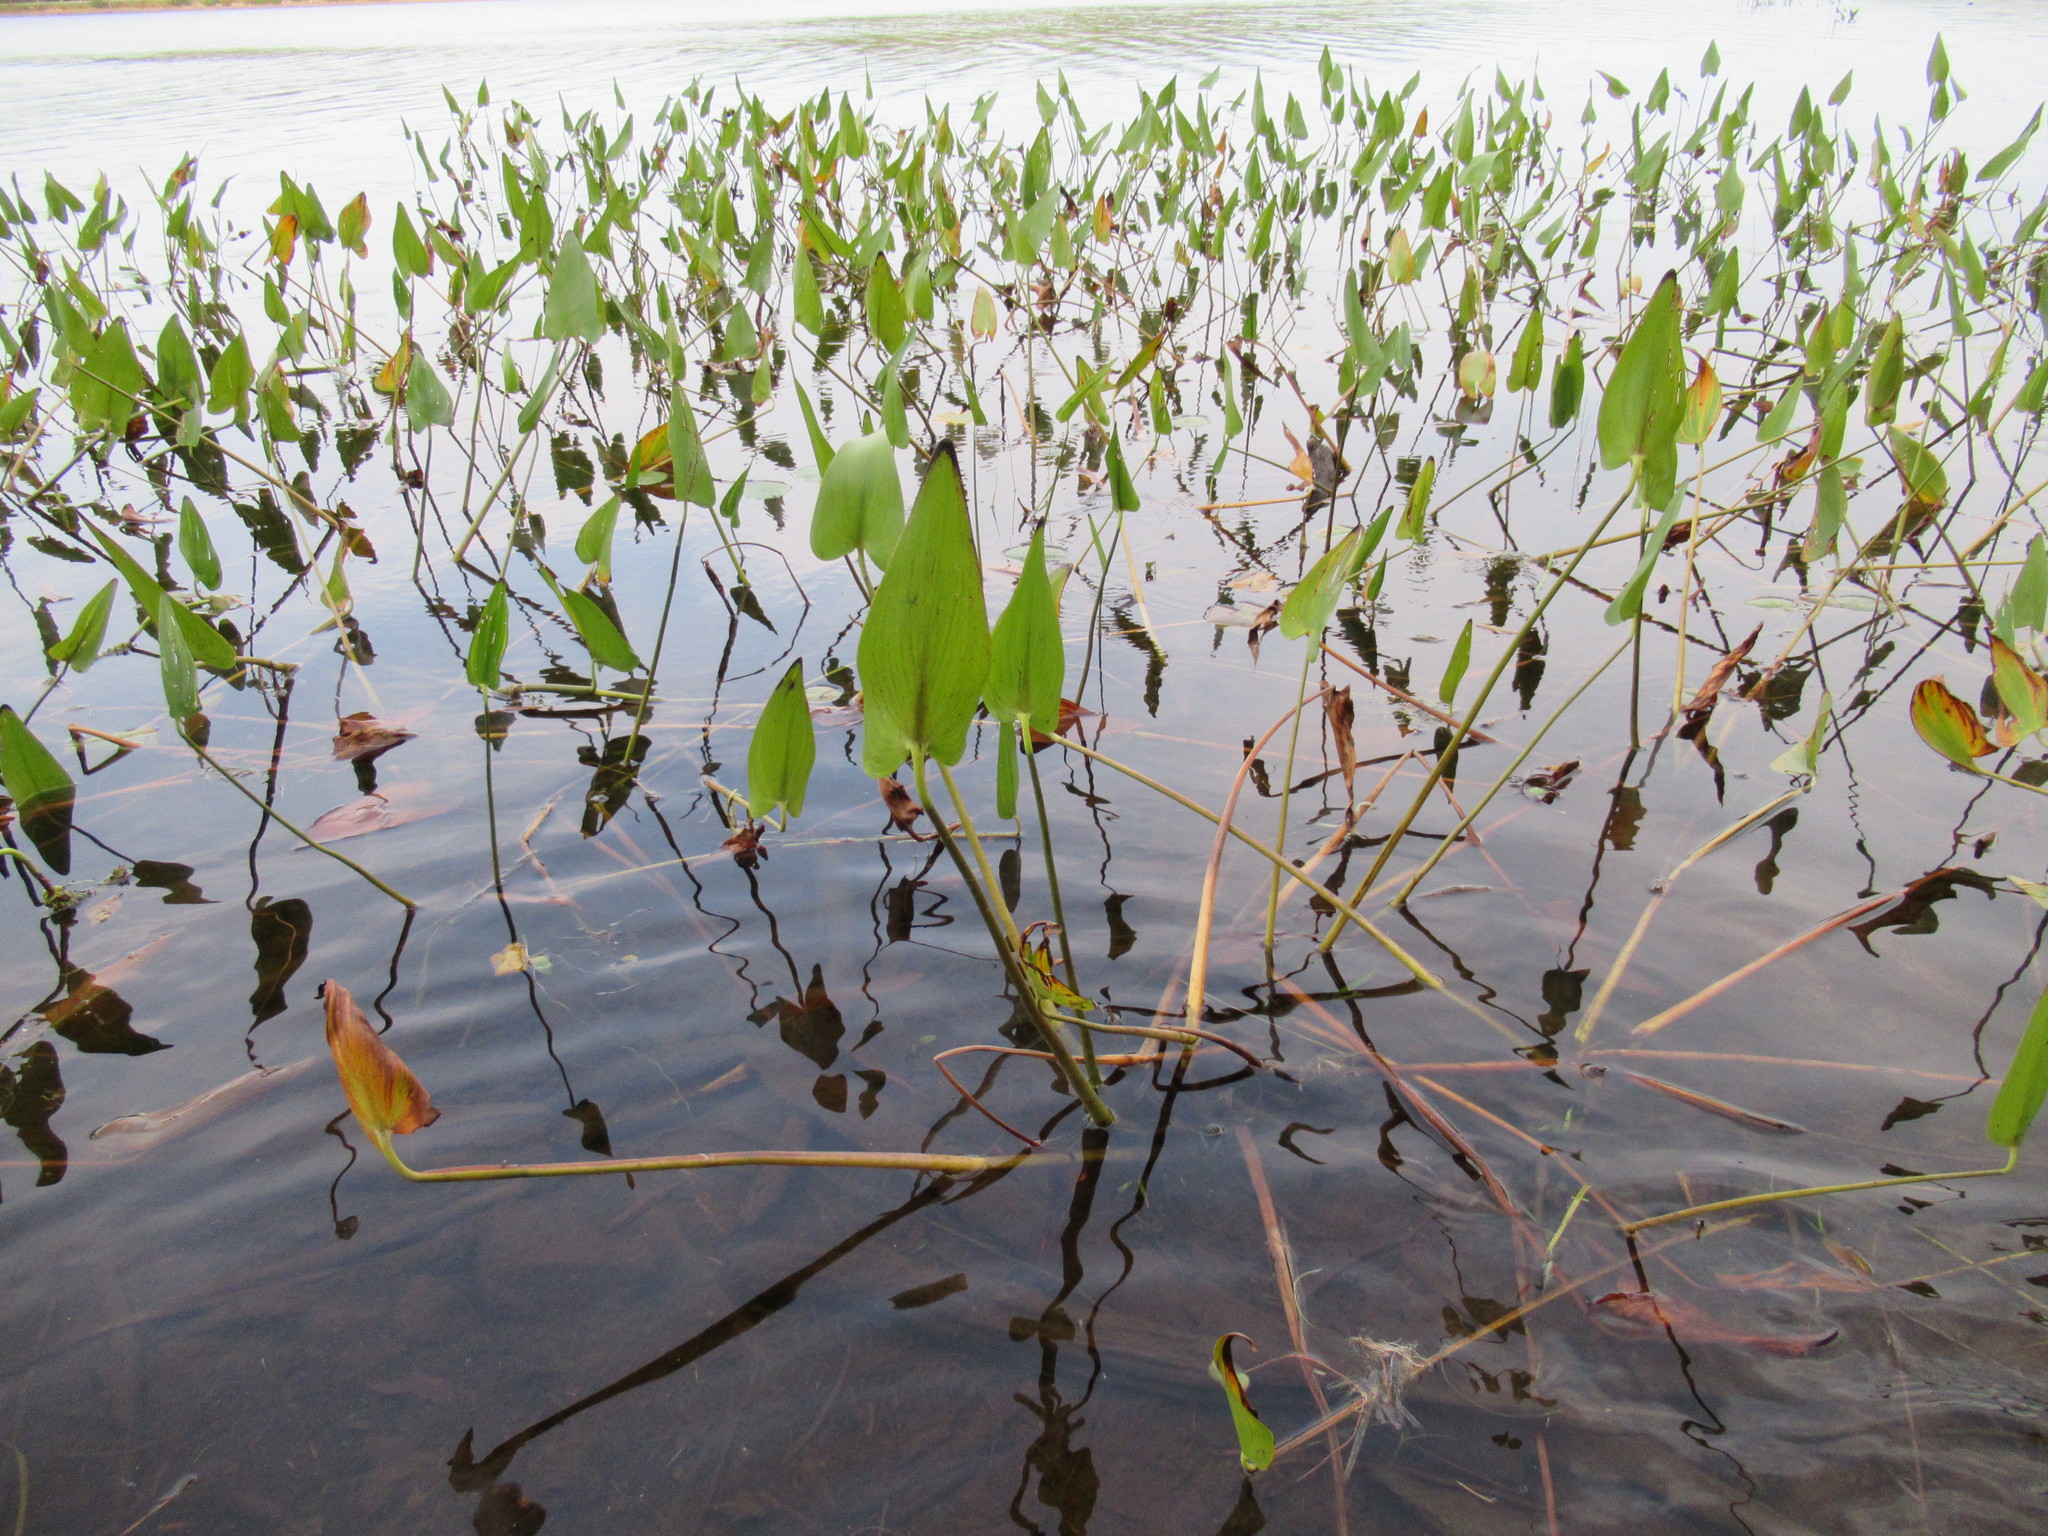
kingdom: Plantae
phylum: Tracheophyta
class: Liliopsida
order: Commelinales
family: Pontederiaceae
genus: Pontederia
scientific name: Pontederia cordata
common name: Pickerelweed
